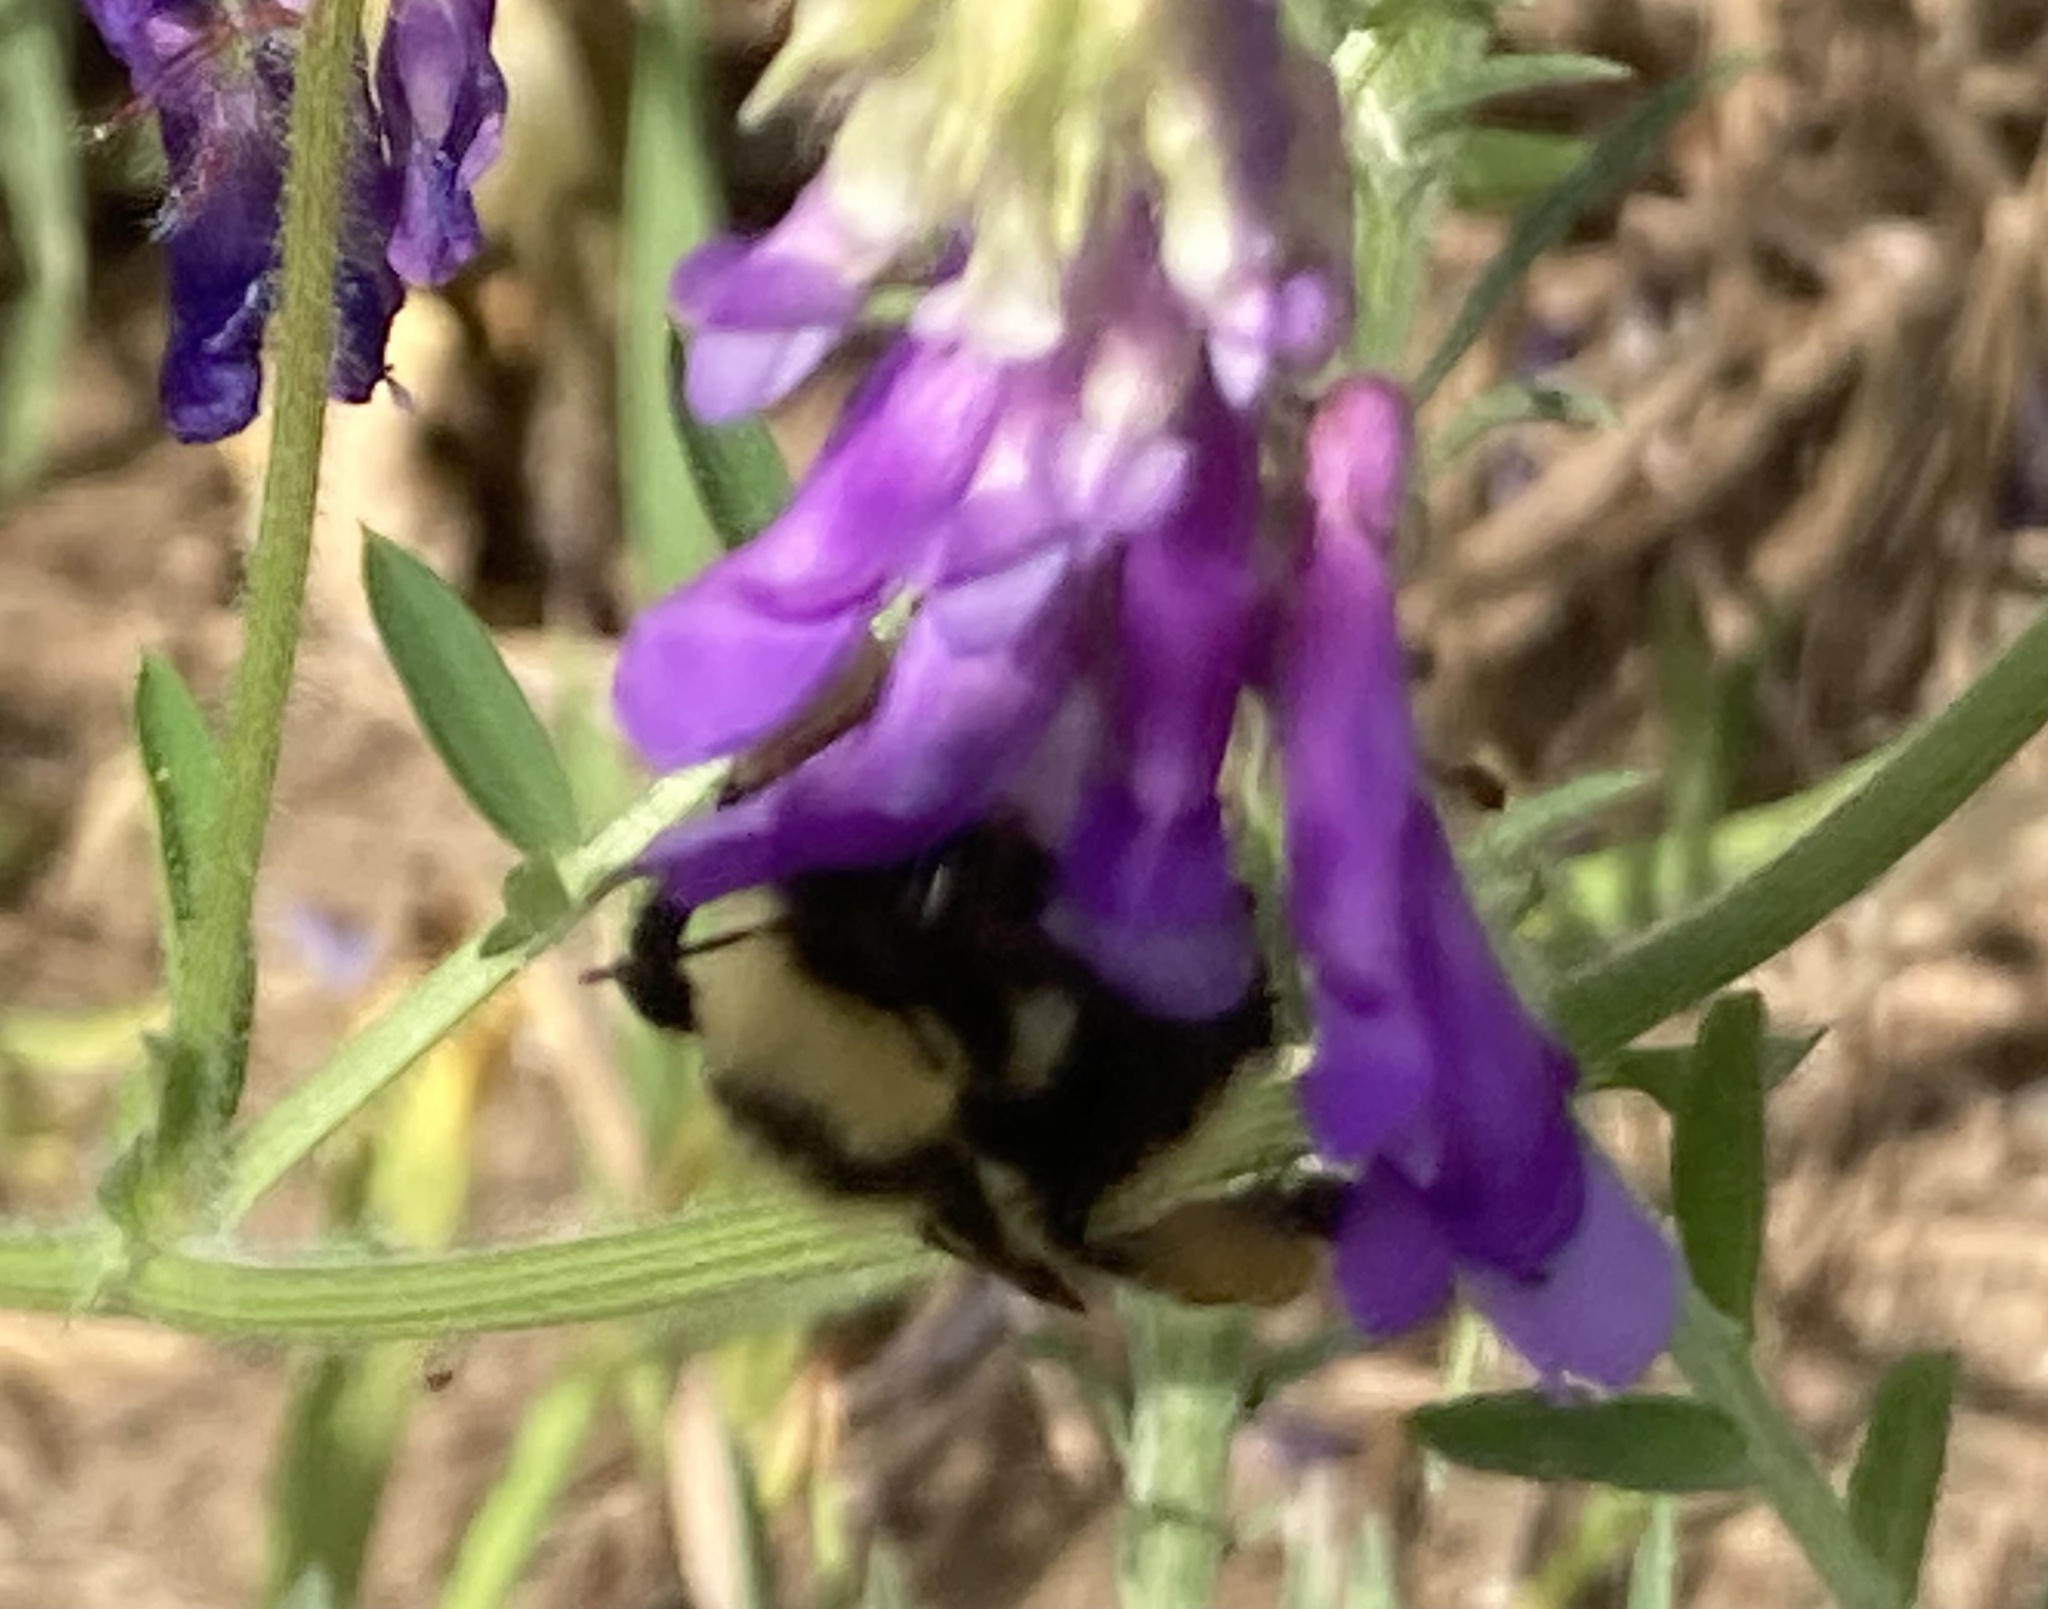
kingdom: Animalia
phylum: Arthropoda
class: Insecta
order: Hymenoptera
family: Apidae
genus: Bombus
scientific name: Bombus fervidus
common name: Yellow bumble bee
